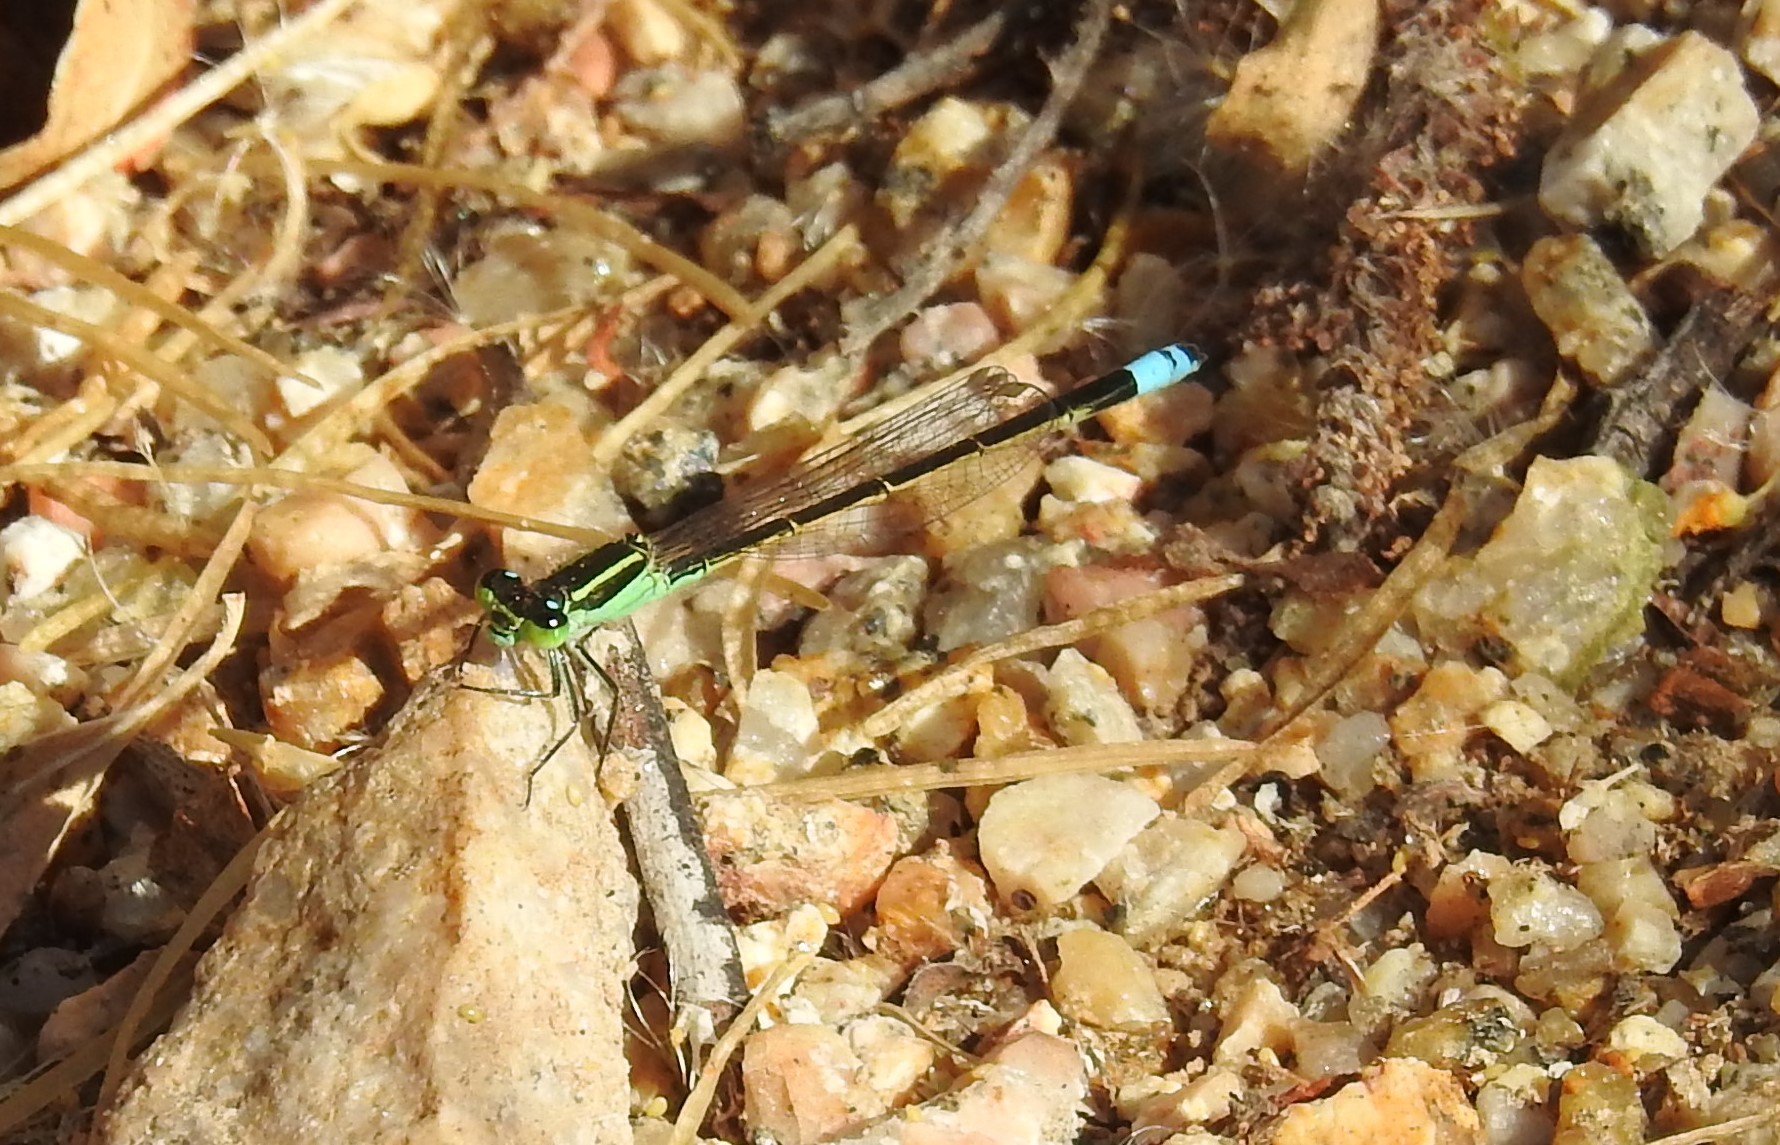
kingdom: Animalia
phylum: Arthropoda
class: Insecta
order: Odonata
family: Coenagrionidae
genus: Ischnura
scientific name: Ischnura ramburii
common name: Rambur's forktail
